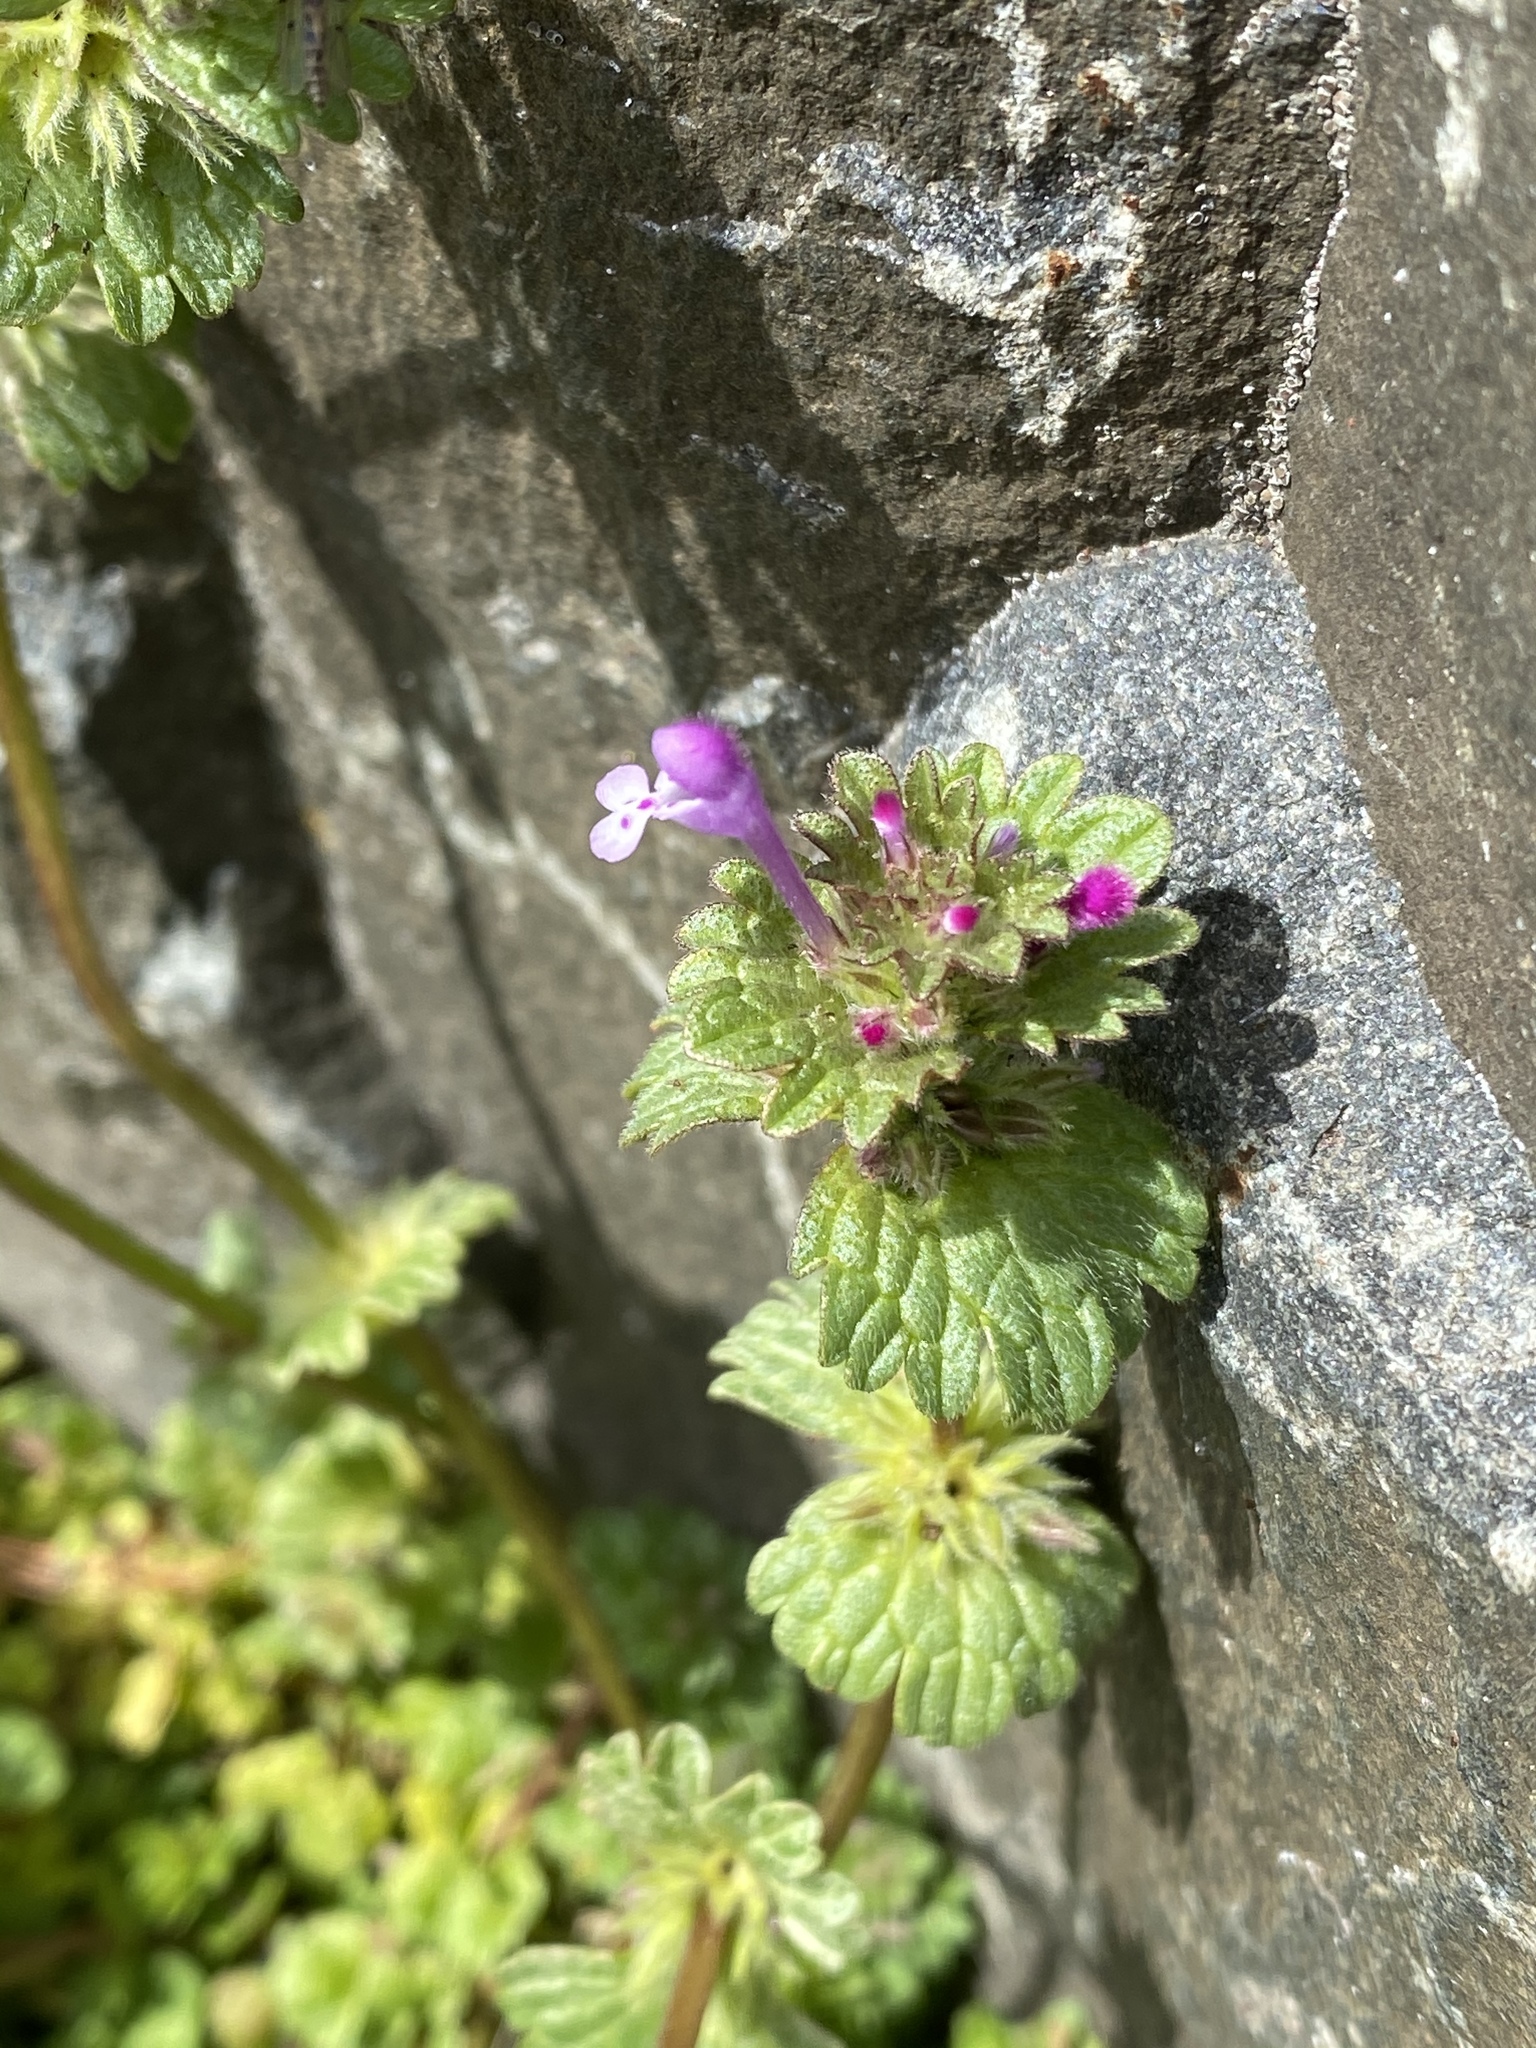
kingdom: Plantae
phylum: Tracheophyta
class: Magnoliopsida
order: Lamiales
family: Lamiaceae
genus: Lamium
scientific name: Lamium amplexicaule
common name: Henbit dead-nettle
